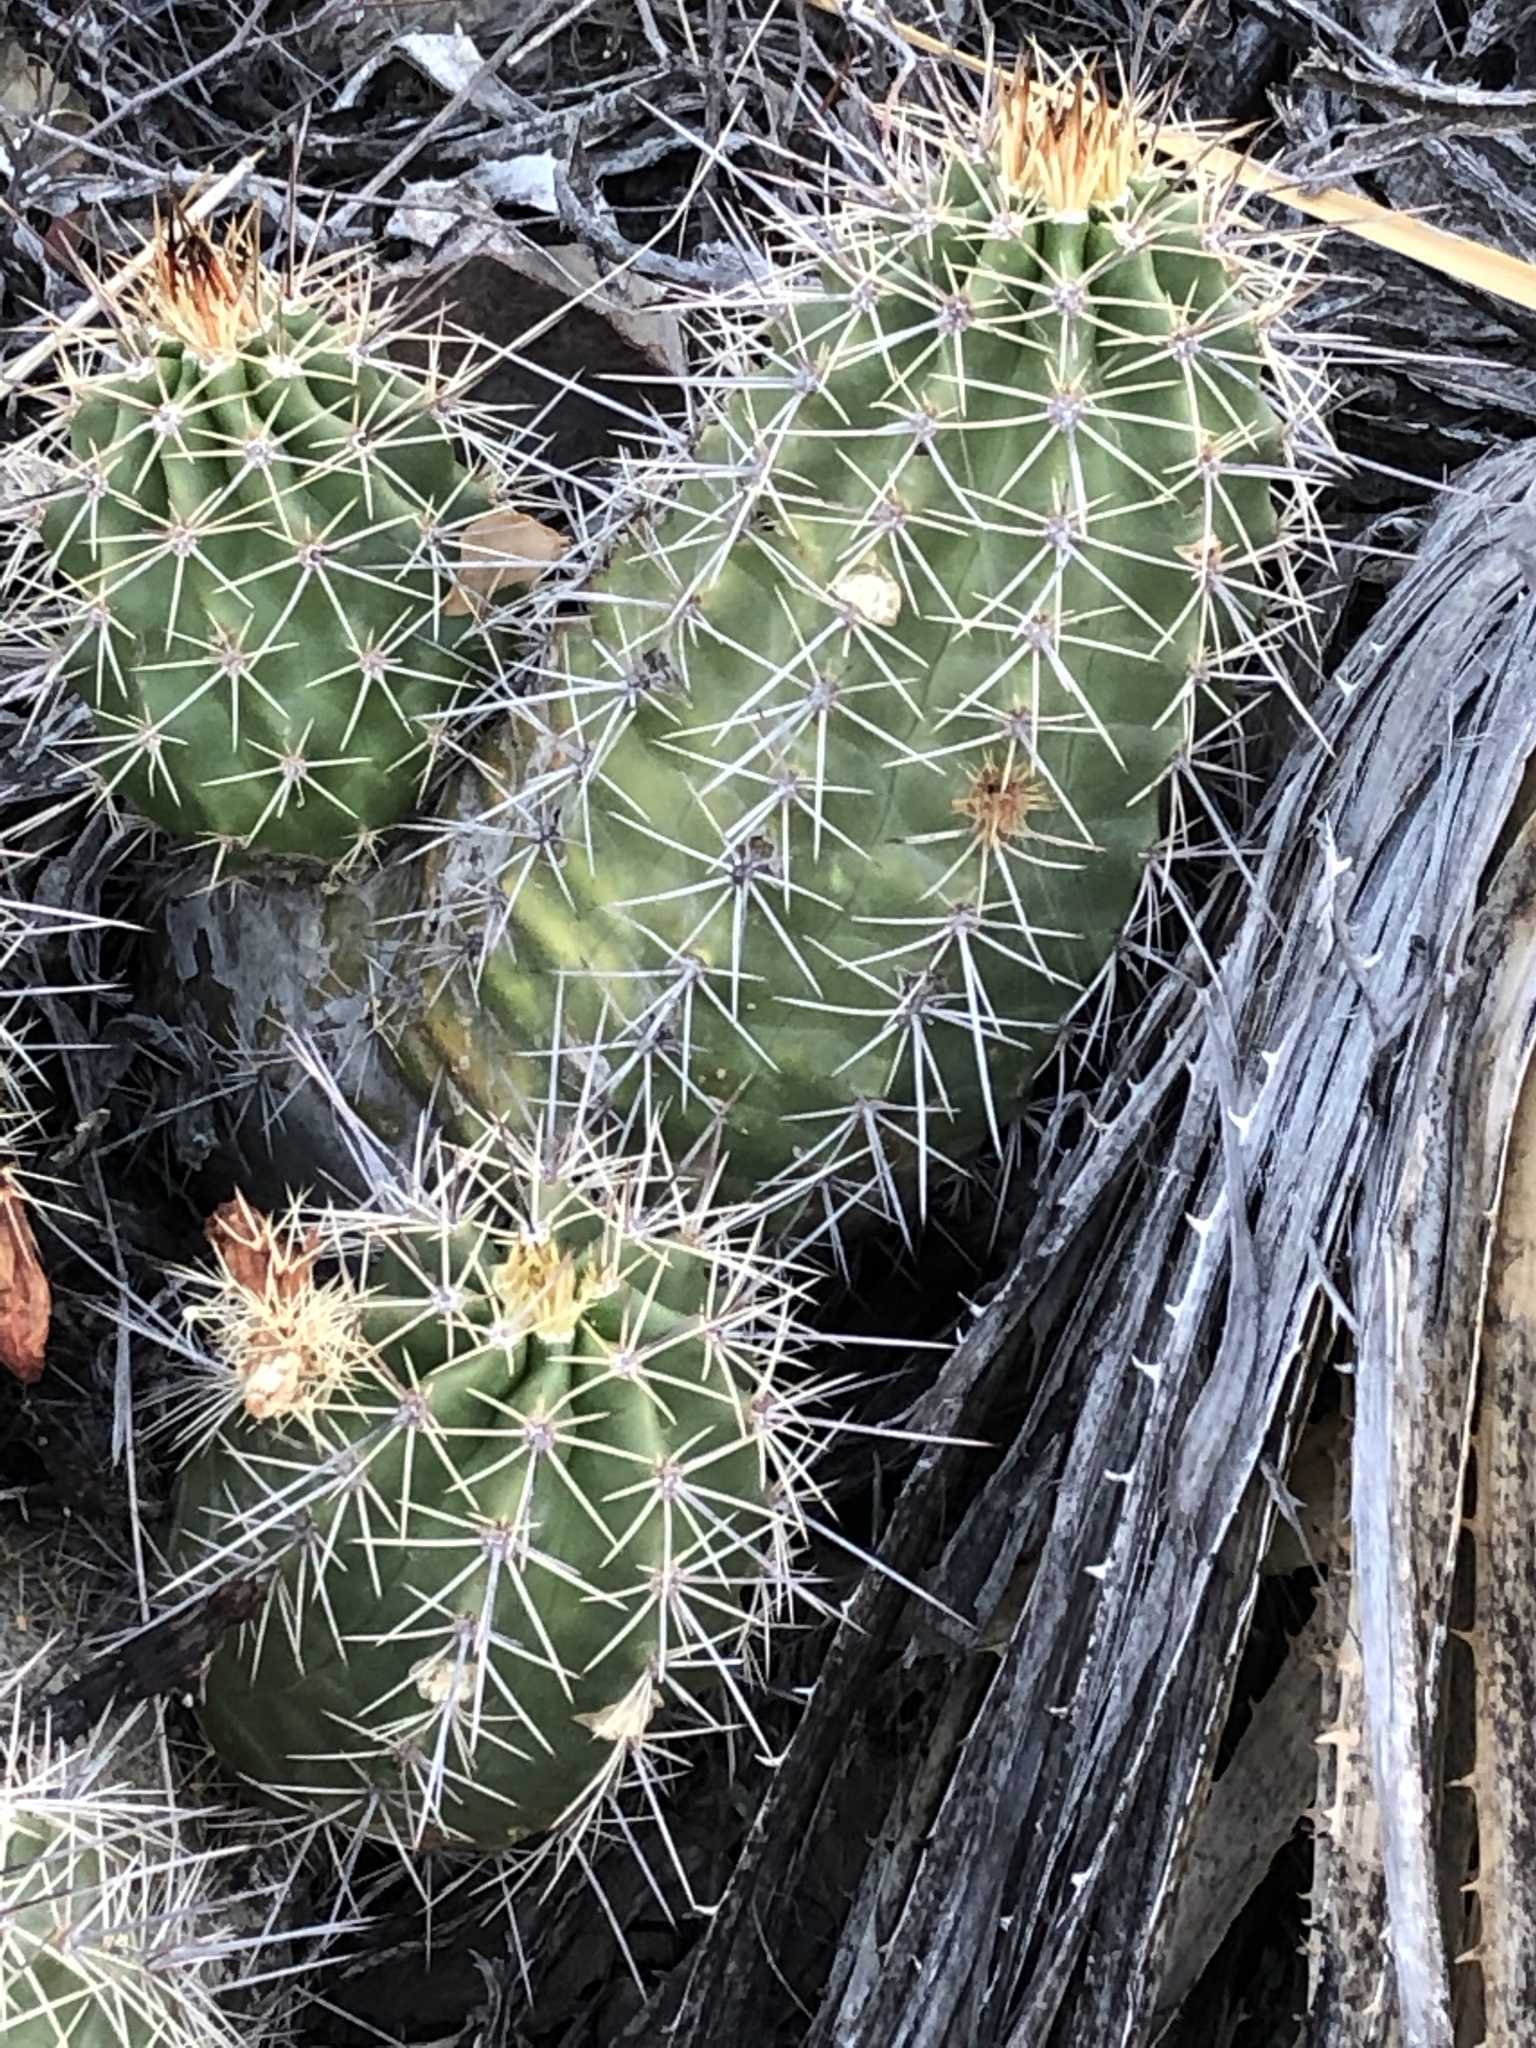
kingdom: Plantae
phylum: Tracheophyta
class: Magnoliopsida
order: Caryophyllales
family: Cactaceae
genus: Echinocereus
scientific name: Echinocereus coccineus
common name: Scarlet hedgehog cactus
